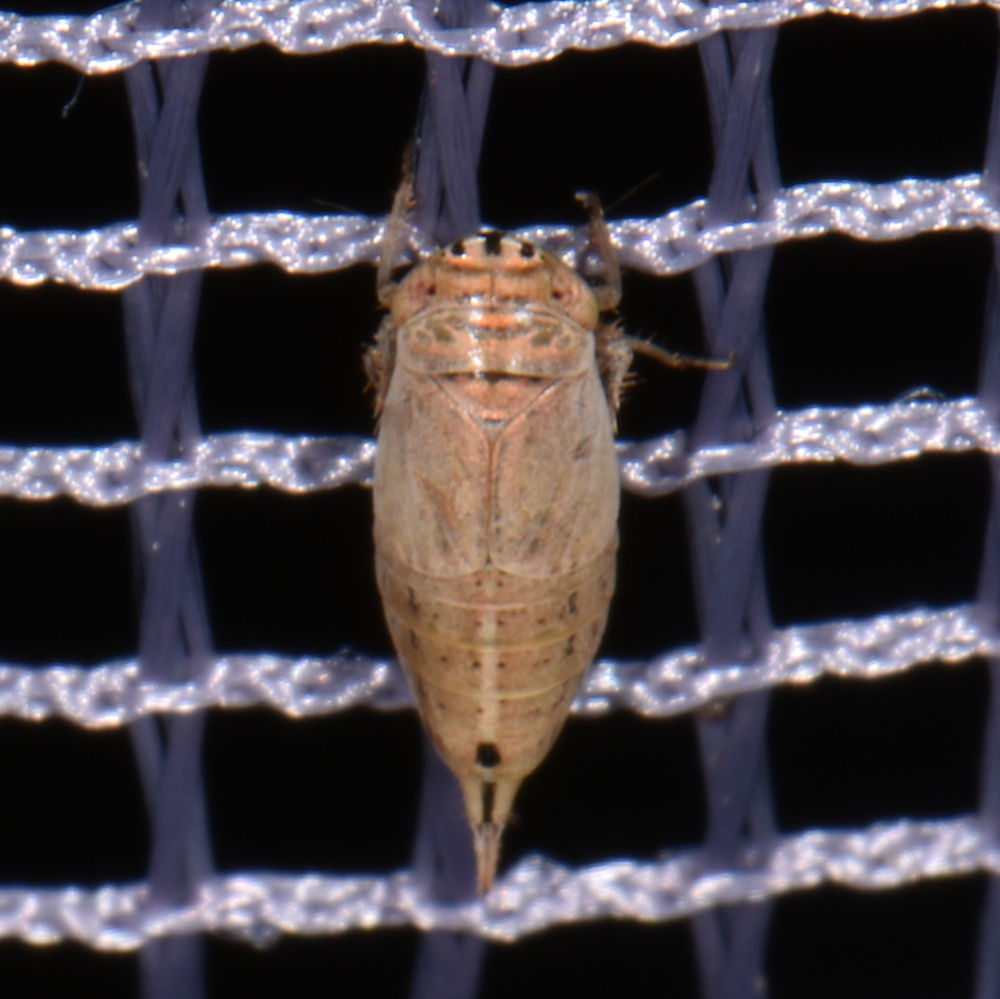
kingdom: Animalia
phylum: Arthropoda
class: Insecta
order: Hemiptera
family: Cicadellidae
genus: Doratura
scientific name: Doratura stylata
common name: Leafhopper
